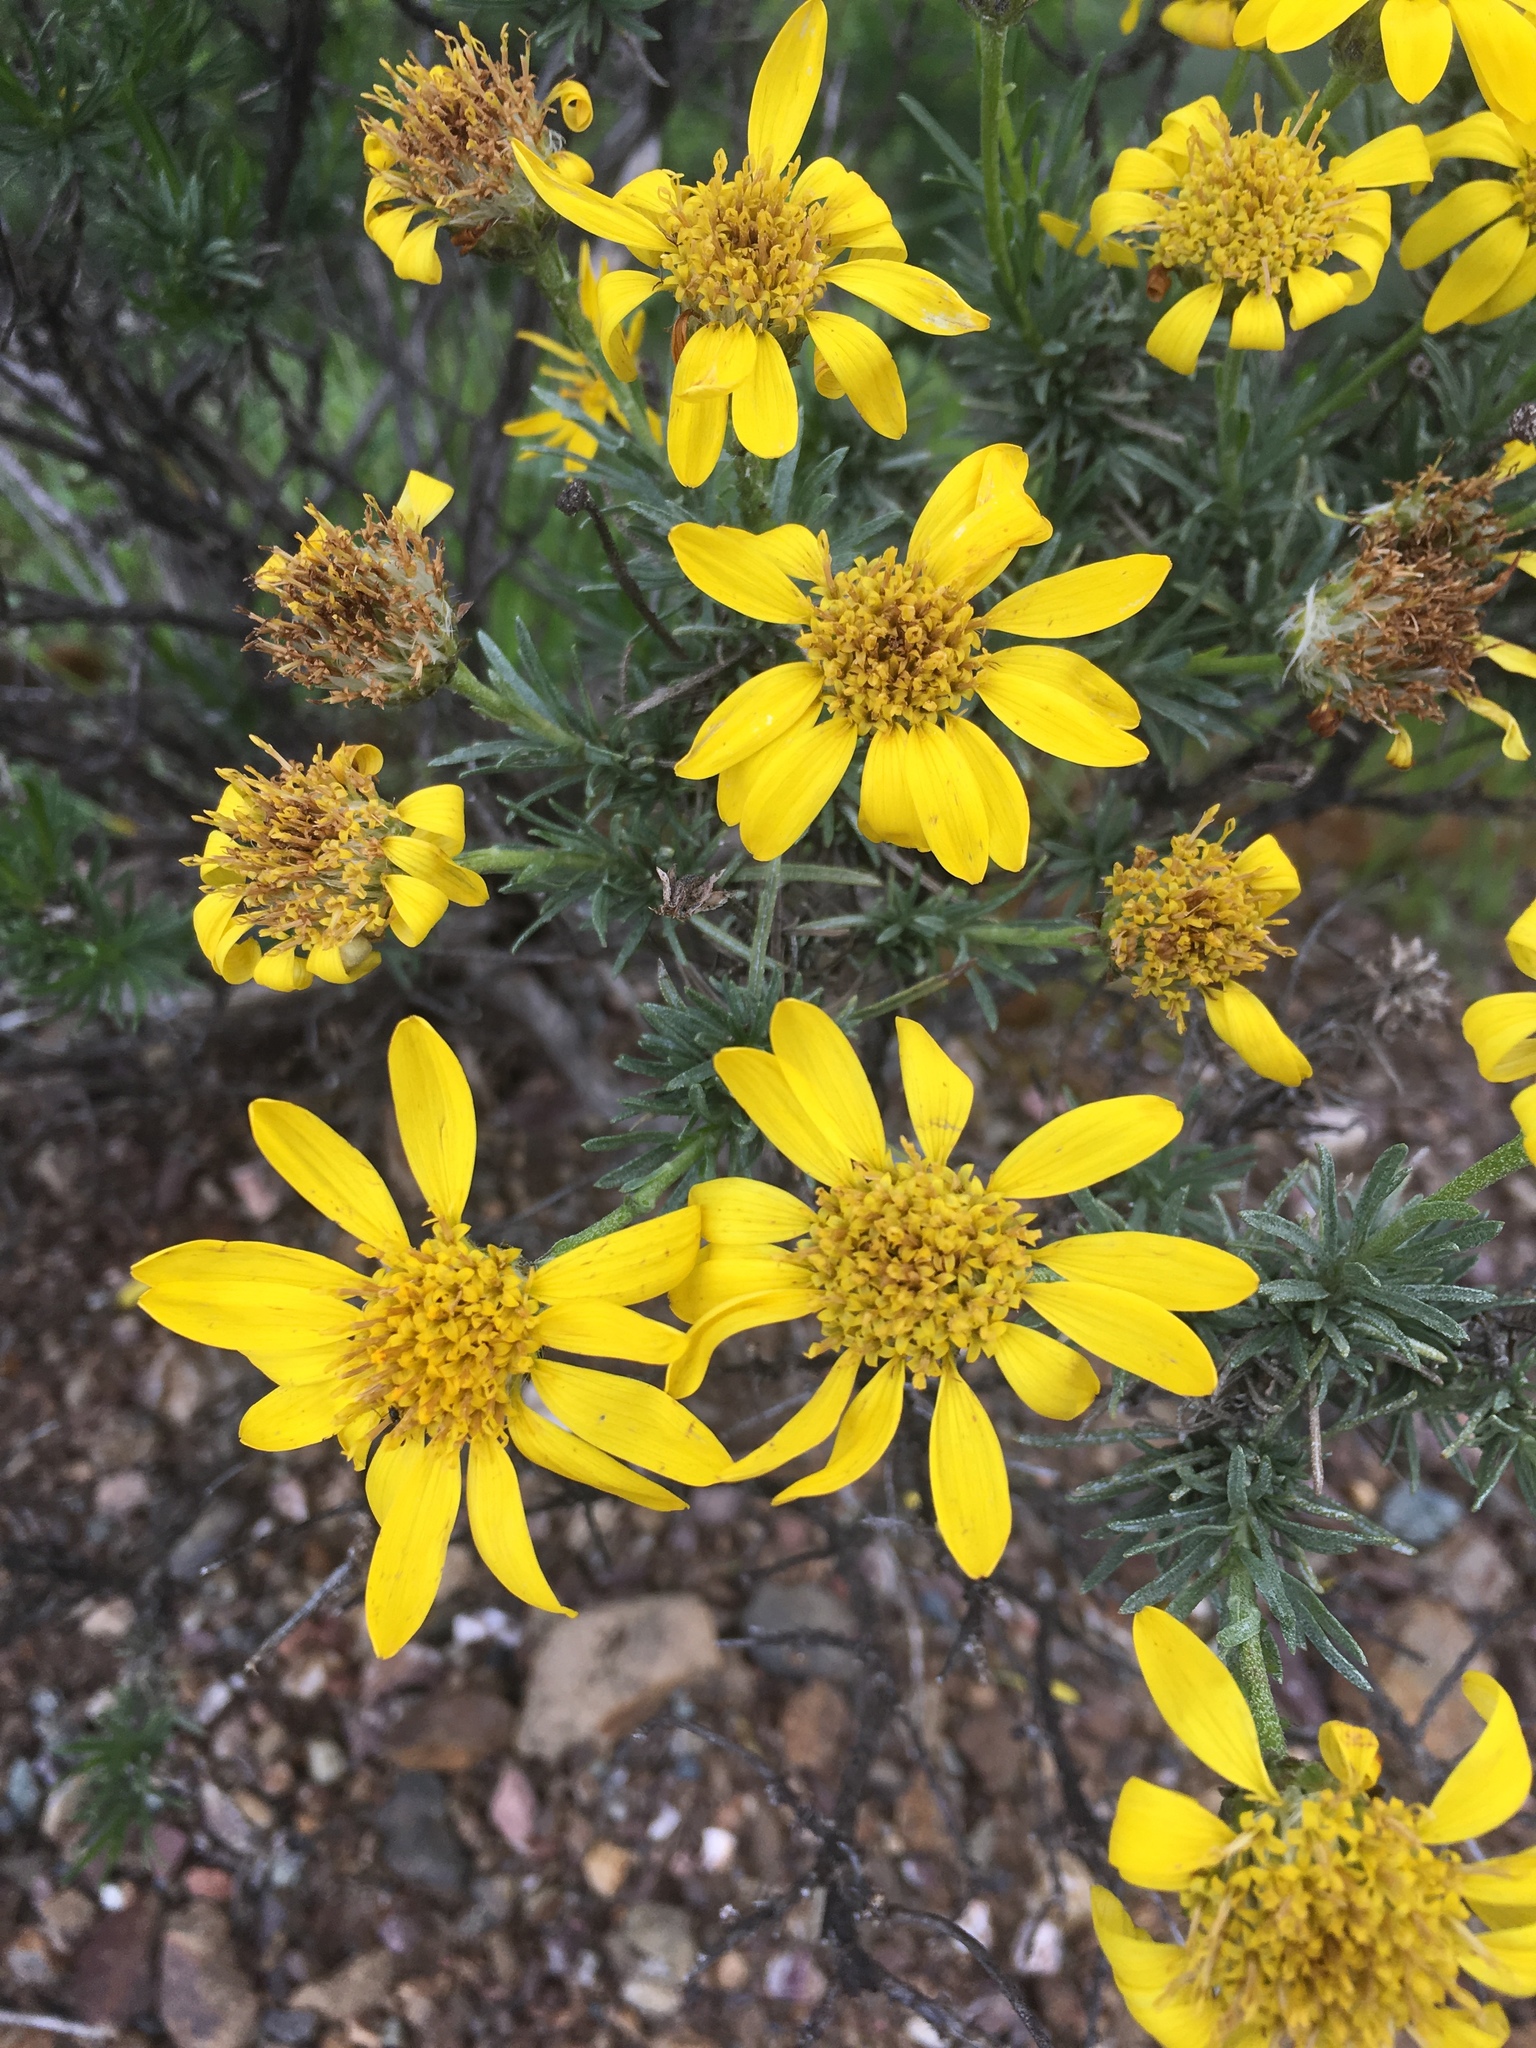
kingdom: Plantae
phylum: Tracheophyta
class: Magnoliopsida
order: Asterales
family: Asteraceae
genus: Ericameria
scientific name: Ericameria linearifolia
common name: Interior goldenbush
